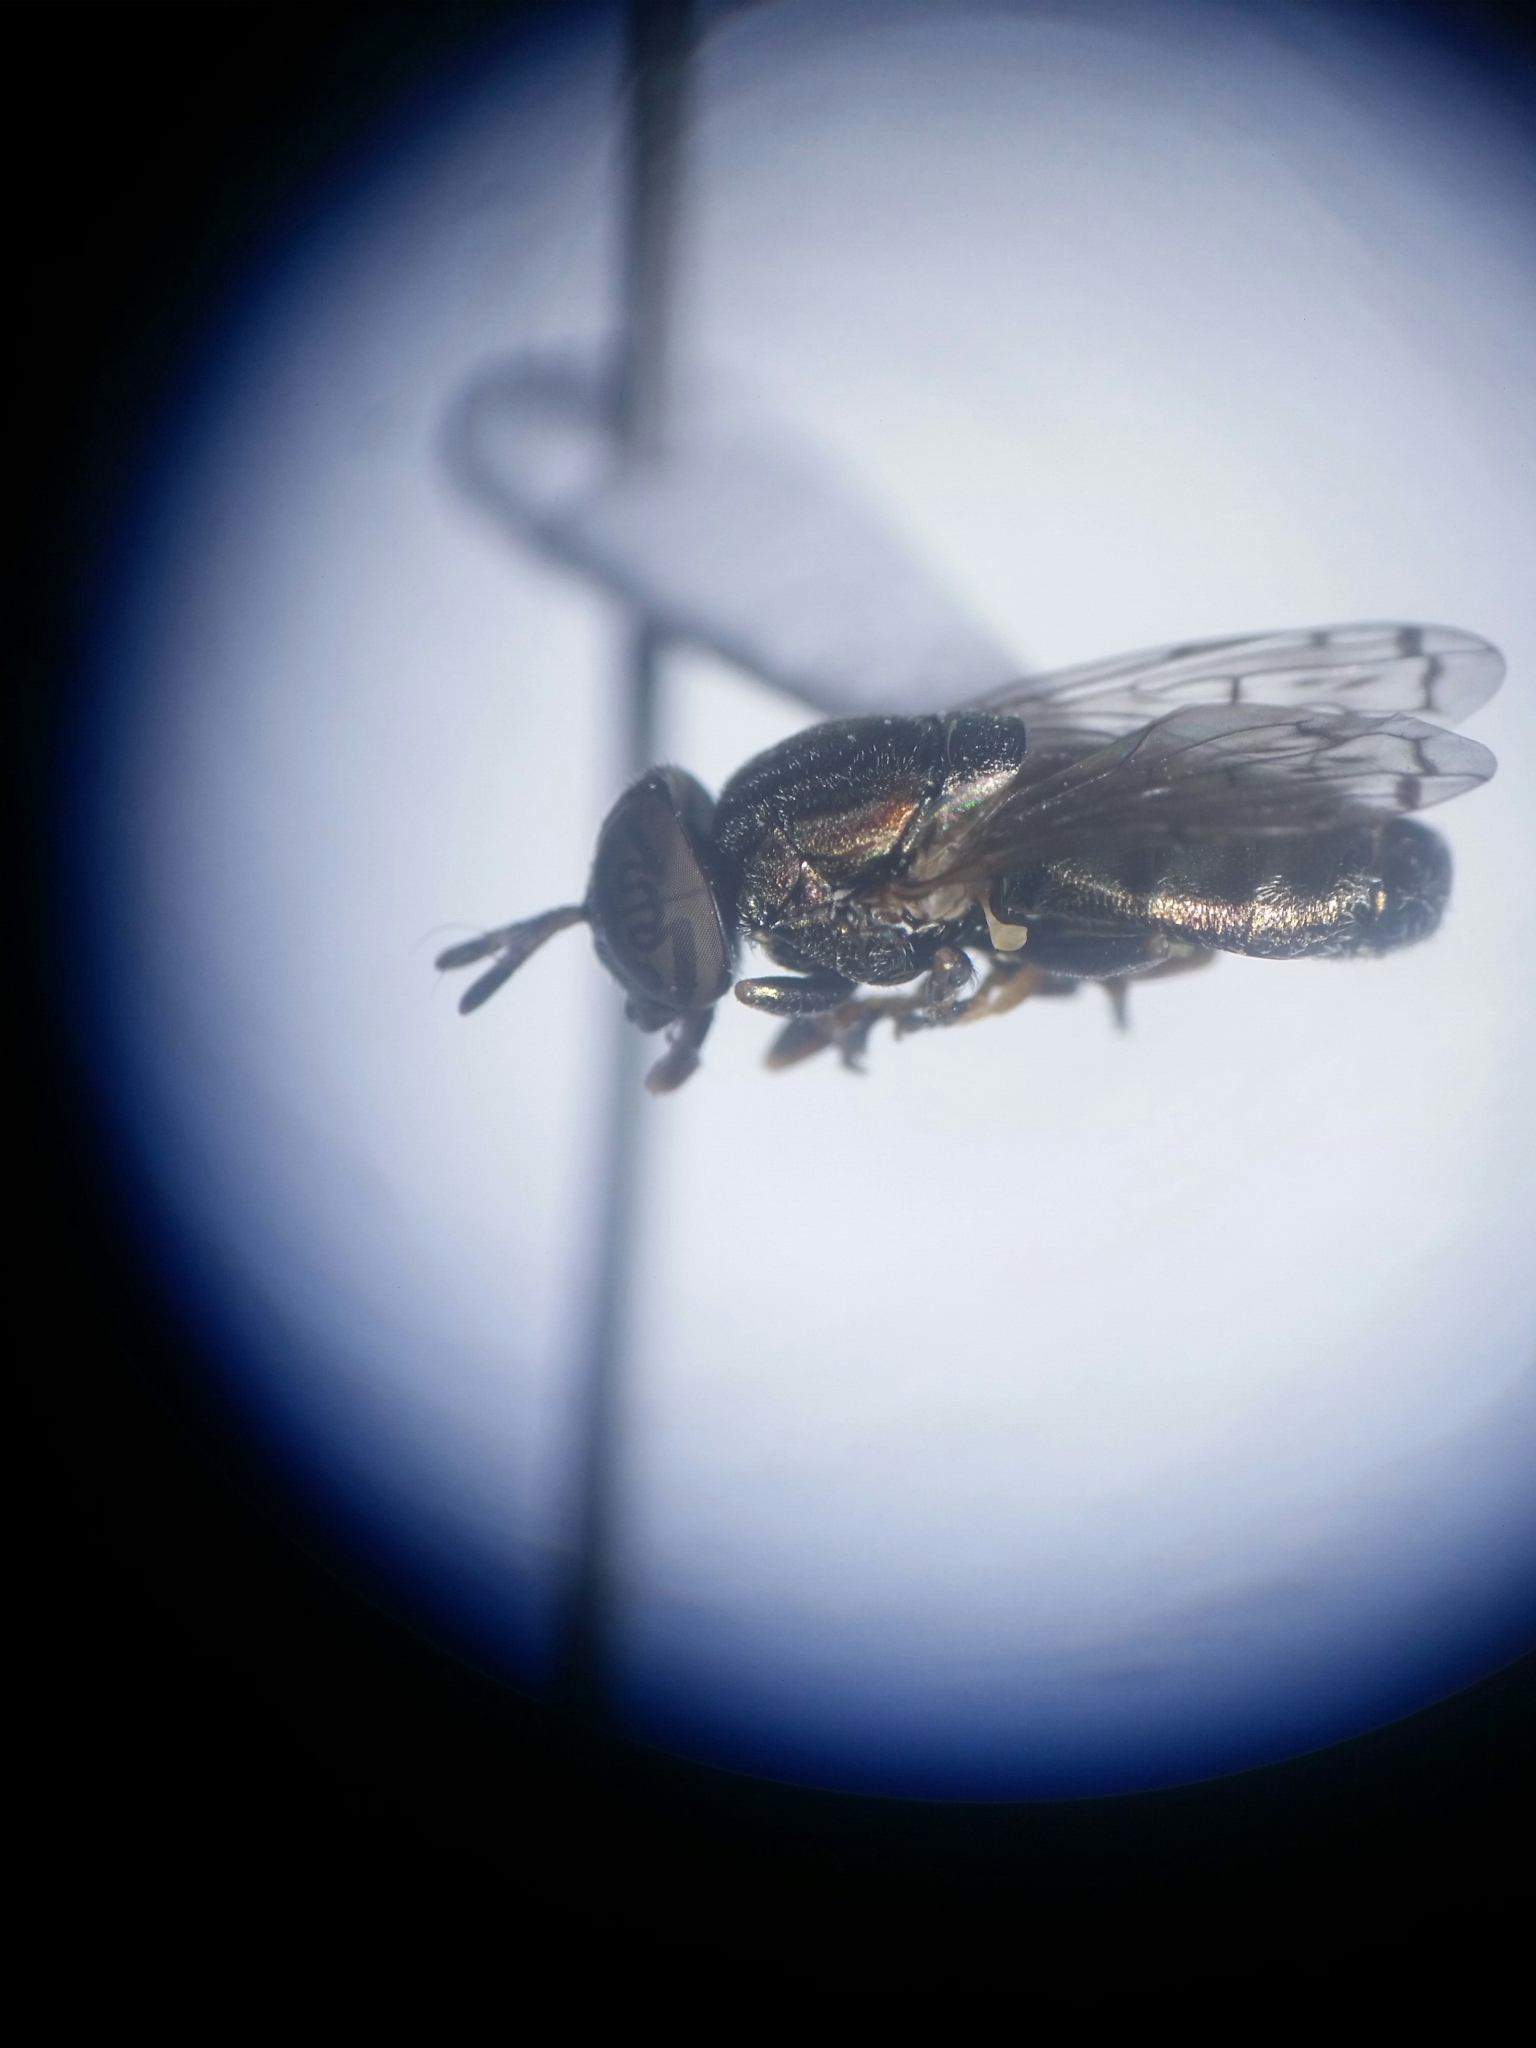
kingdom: Animalia
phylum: Arthropoda
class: Insecta
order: Diptera
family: Syrphidae
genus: Orthonevra
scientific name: Orthonevra nitida
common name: Wavy mucksucker
